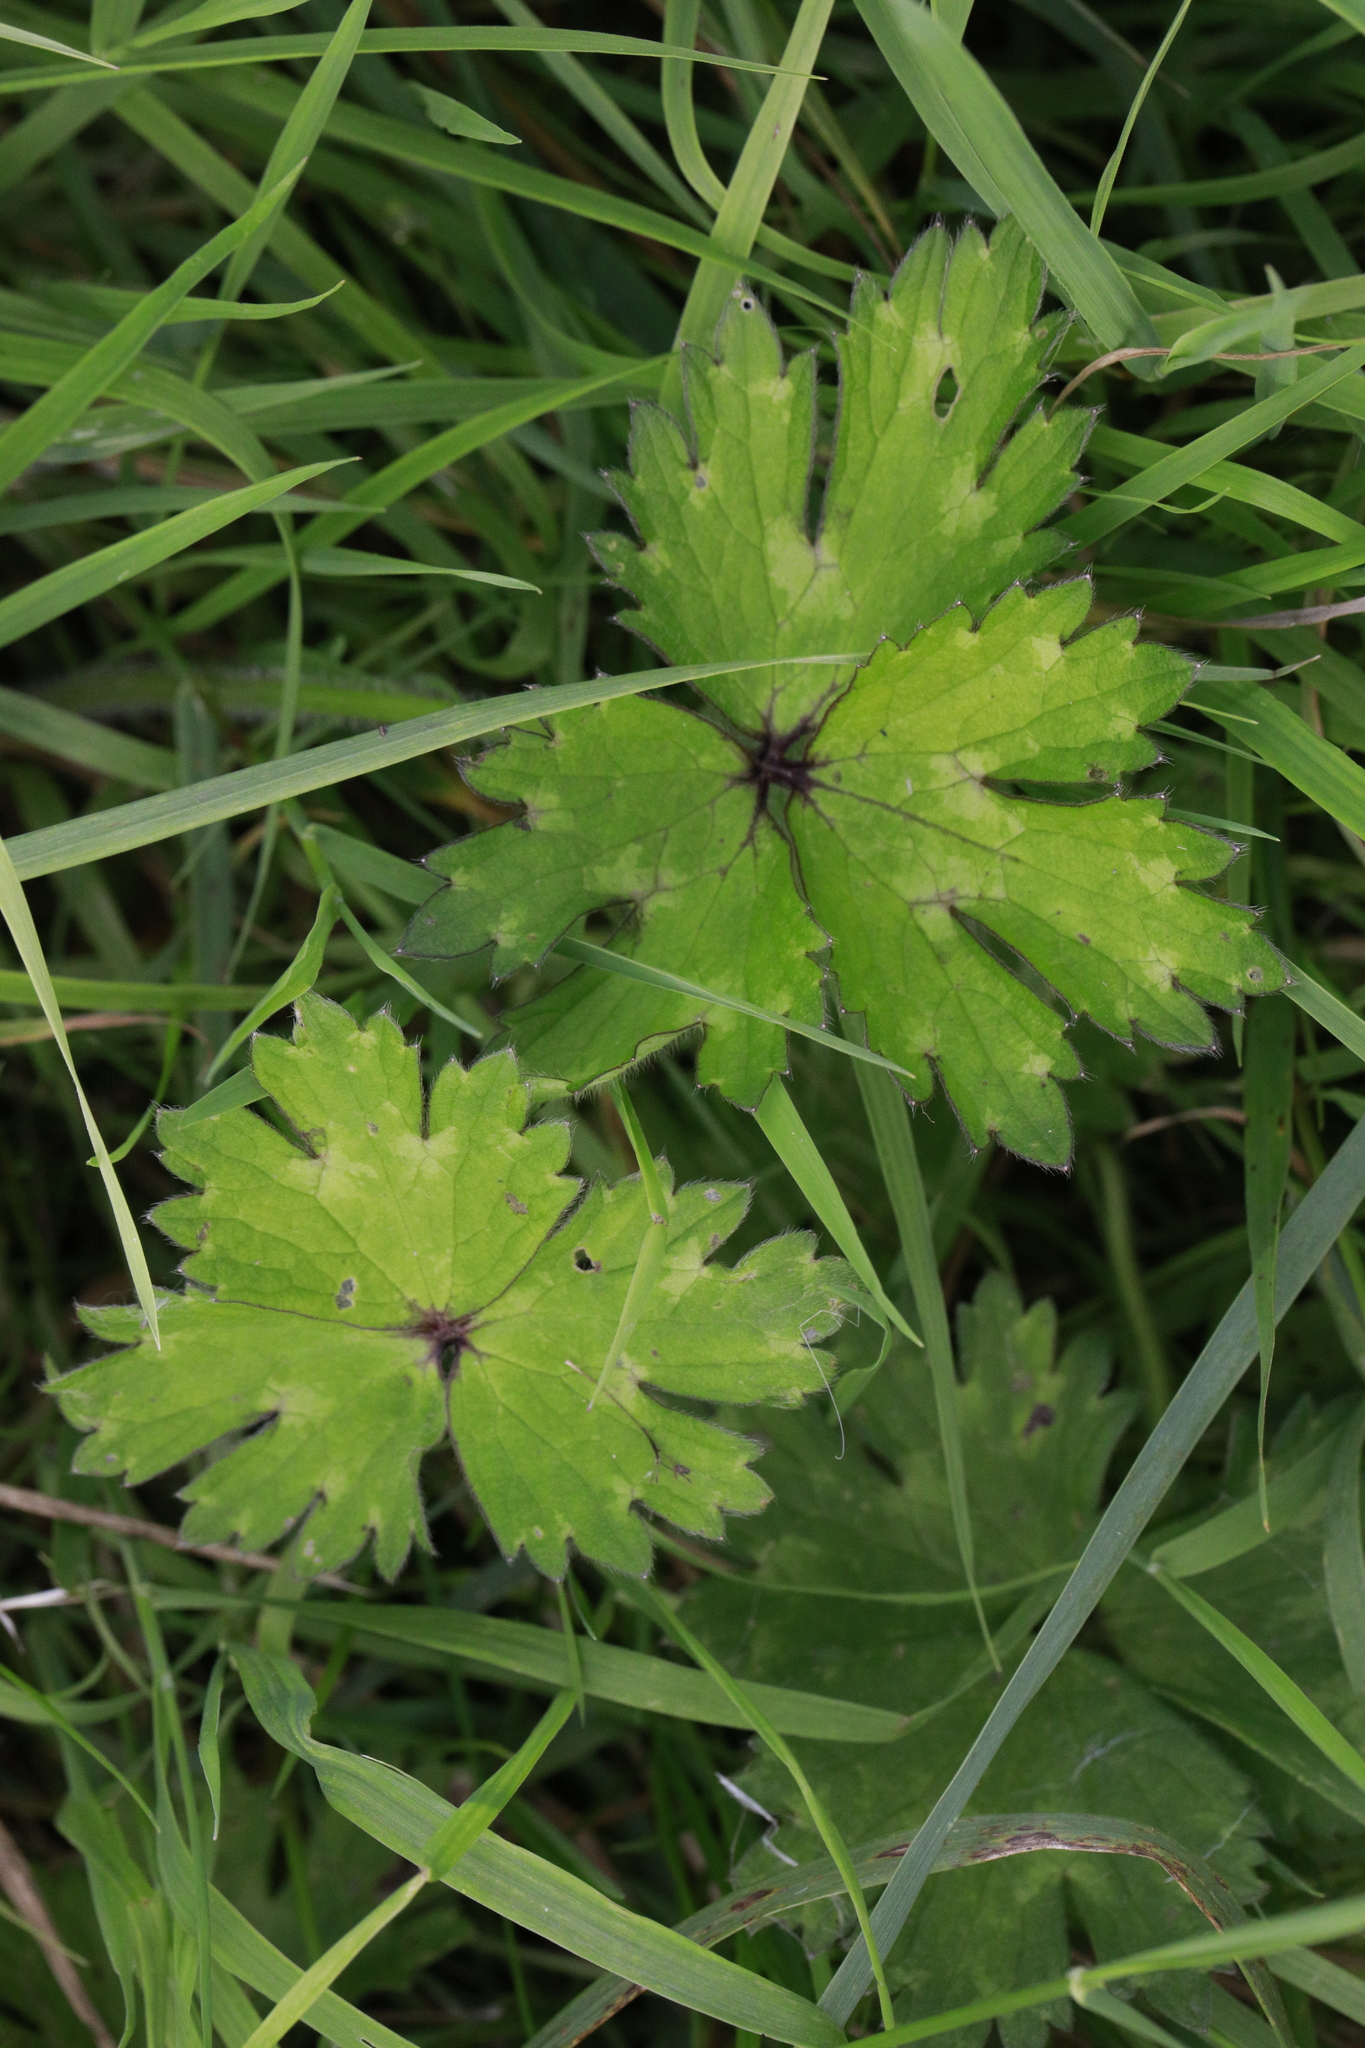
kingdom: Plantae
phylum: Tracheophyta
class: Magnoliopsida
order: Ranunculales
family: Ranunculaceae
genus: Ranunculus
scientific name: Ranunculus repens
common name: Creeping buttercup
